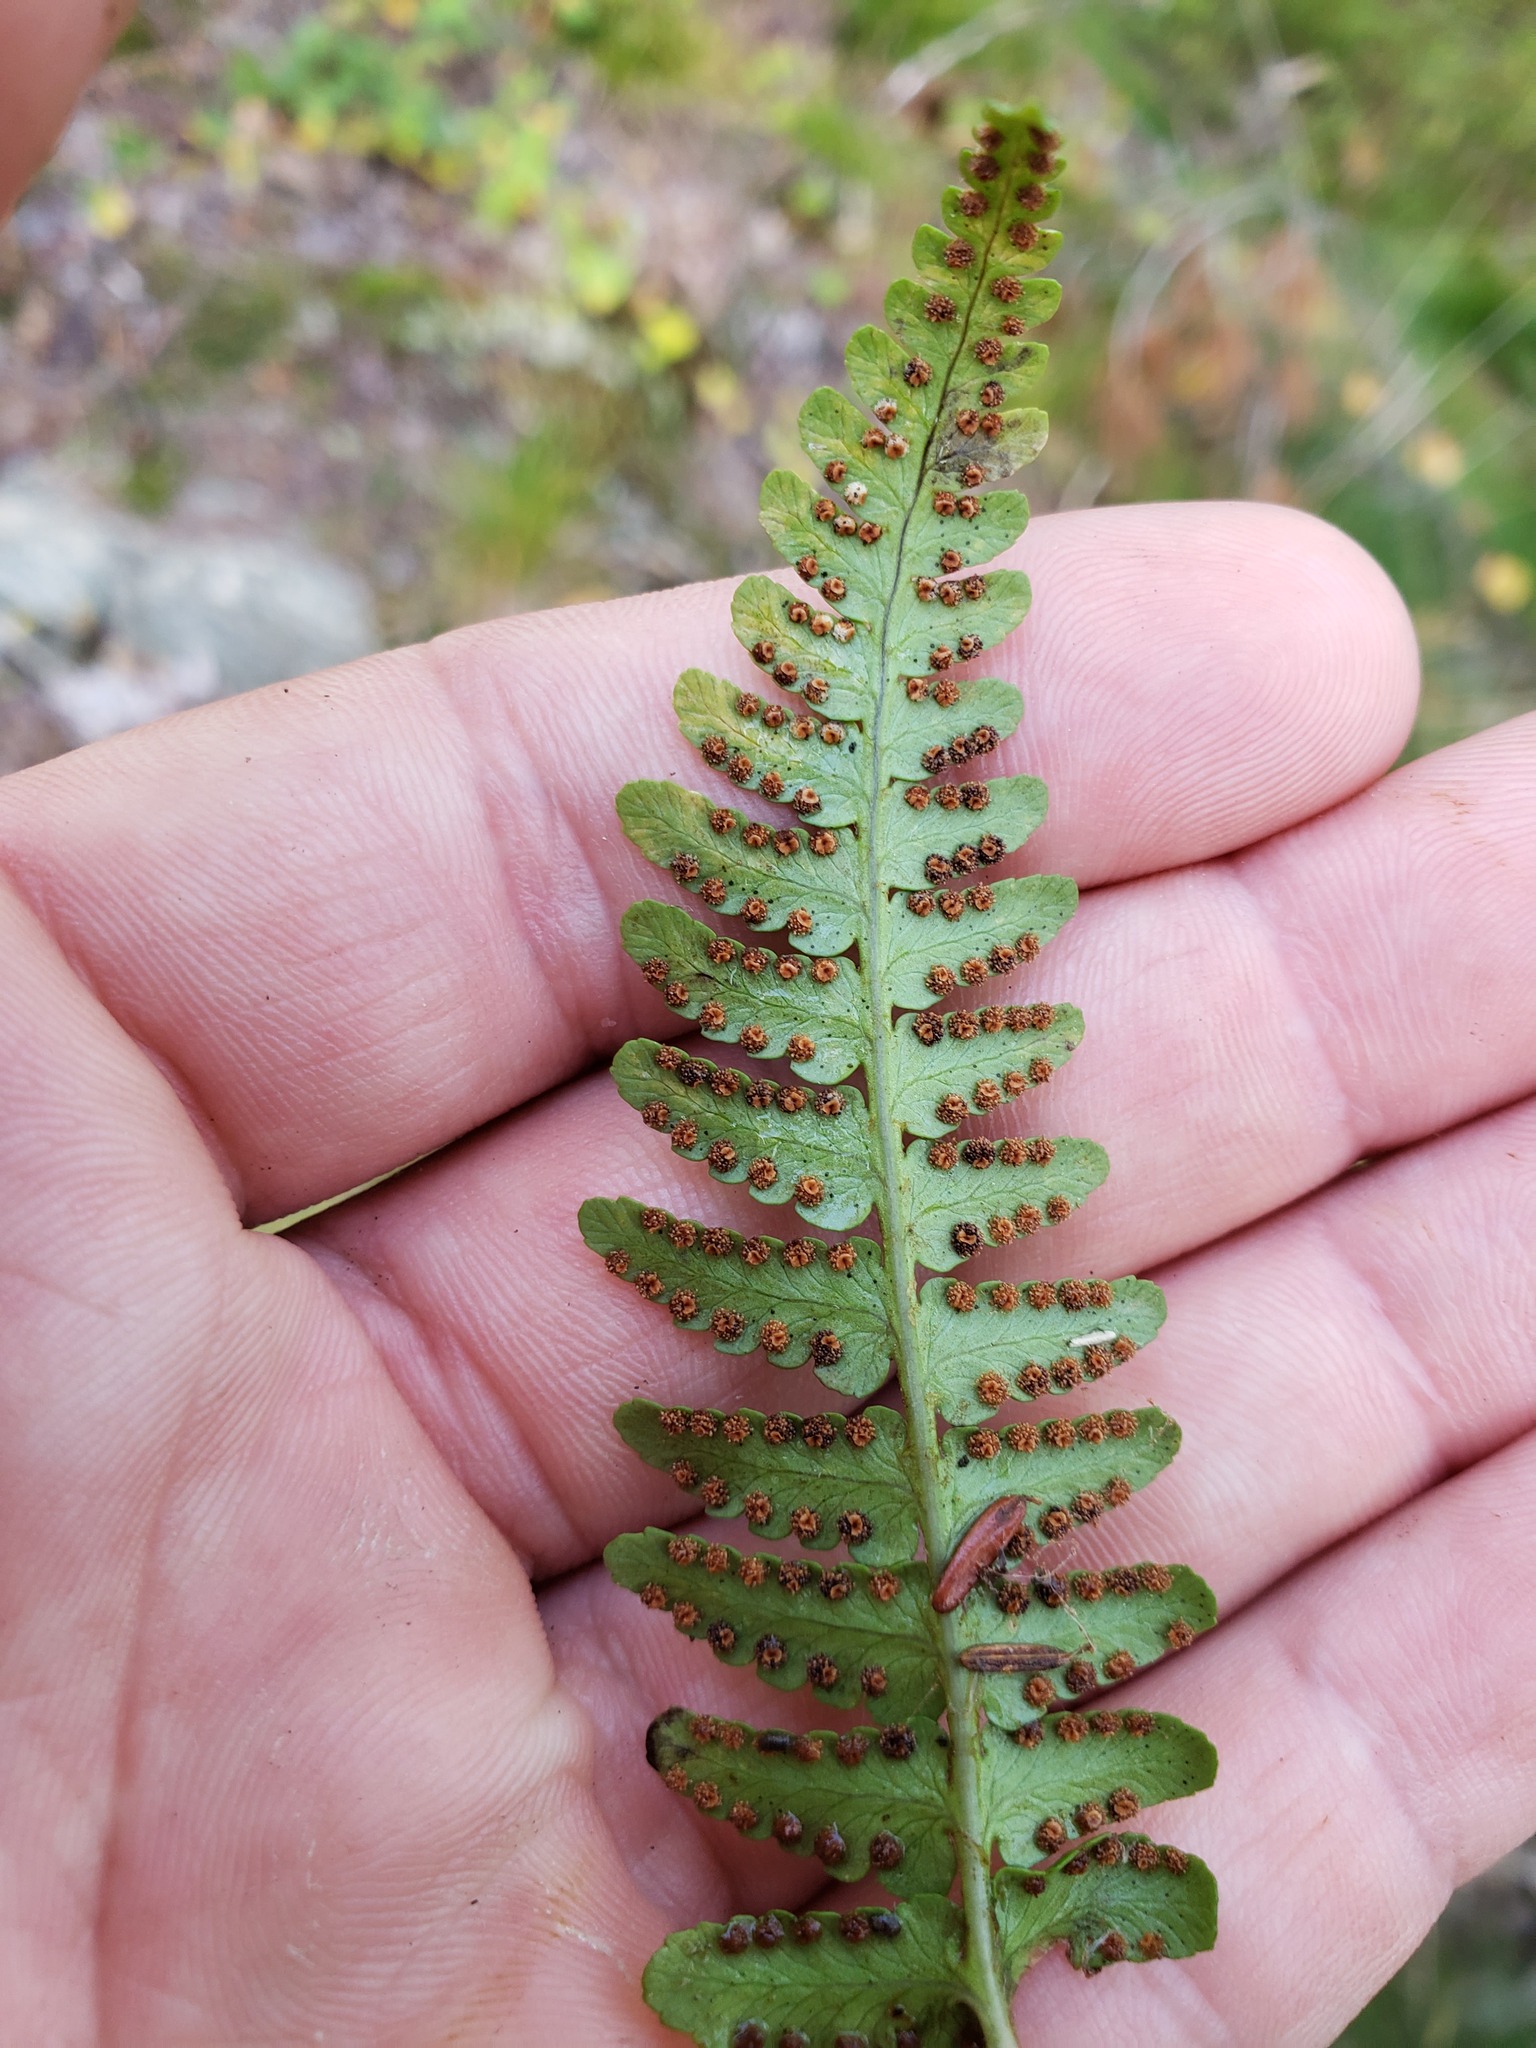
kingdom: Plantae
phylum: Tracheophyta
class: Polypodiopsida
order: Polypodiales
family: Dryopteridaceae
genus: Dryopteris
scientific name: Dryopteris marginalis
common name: Marginal wood fern
